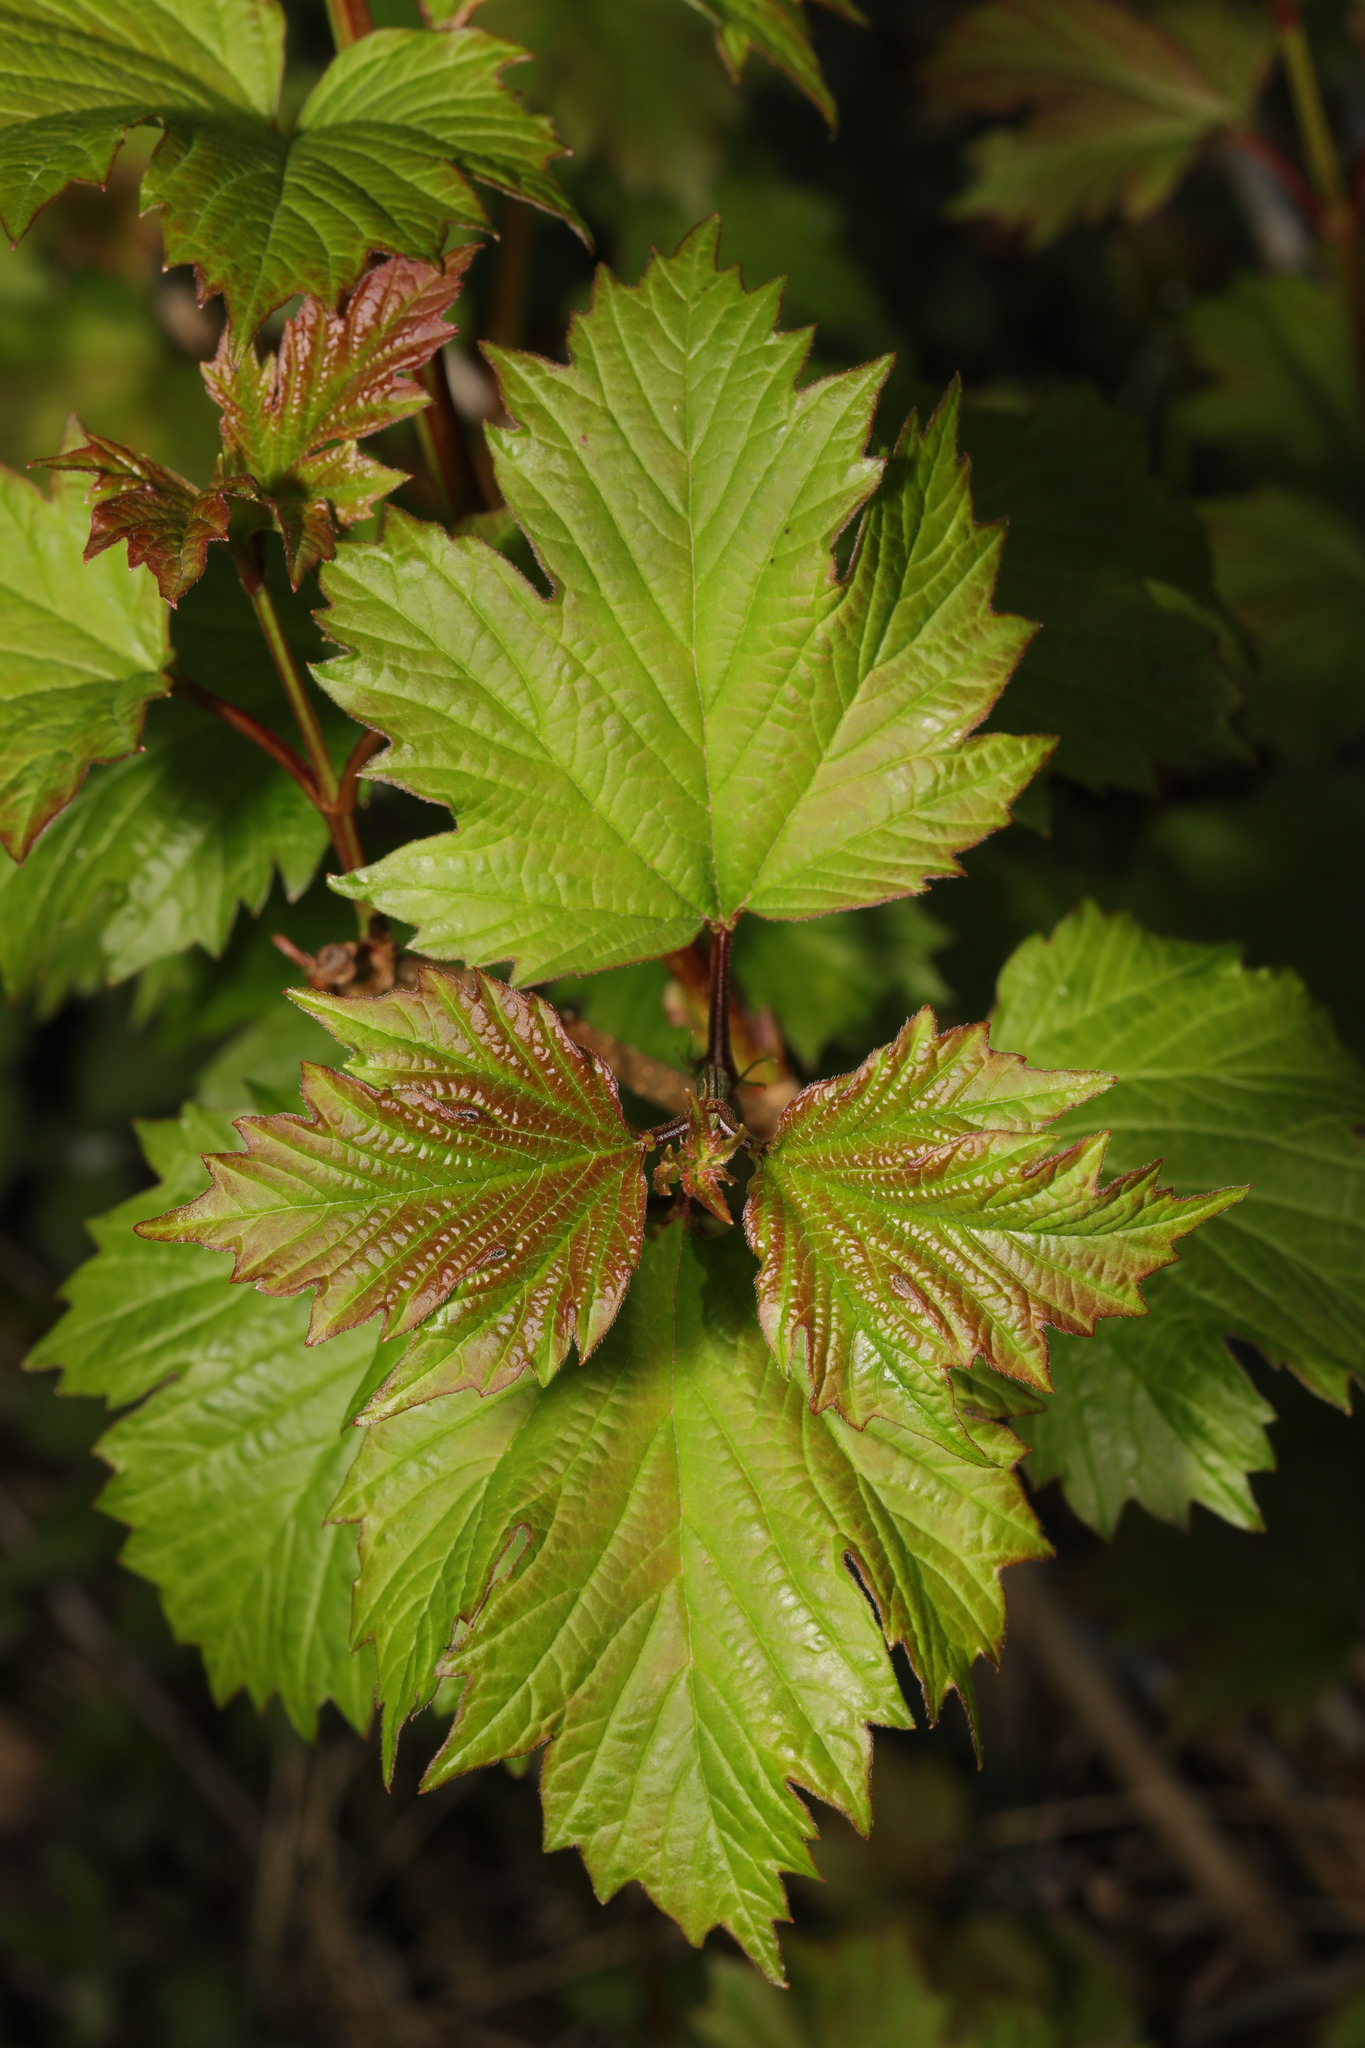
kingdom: Plantae
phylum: Tracheophyta
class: Magnoliopsida
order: Dipsacales
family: Viburnaceae
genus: Viburnum
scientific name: Viburnum opulus
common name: Guelder-rose
